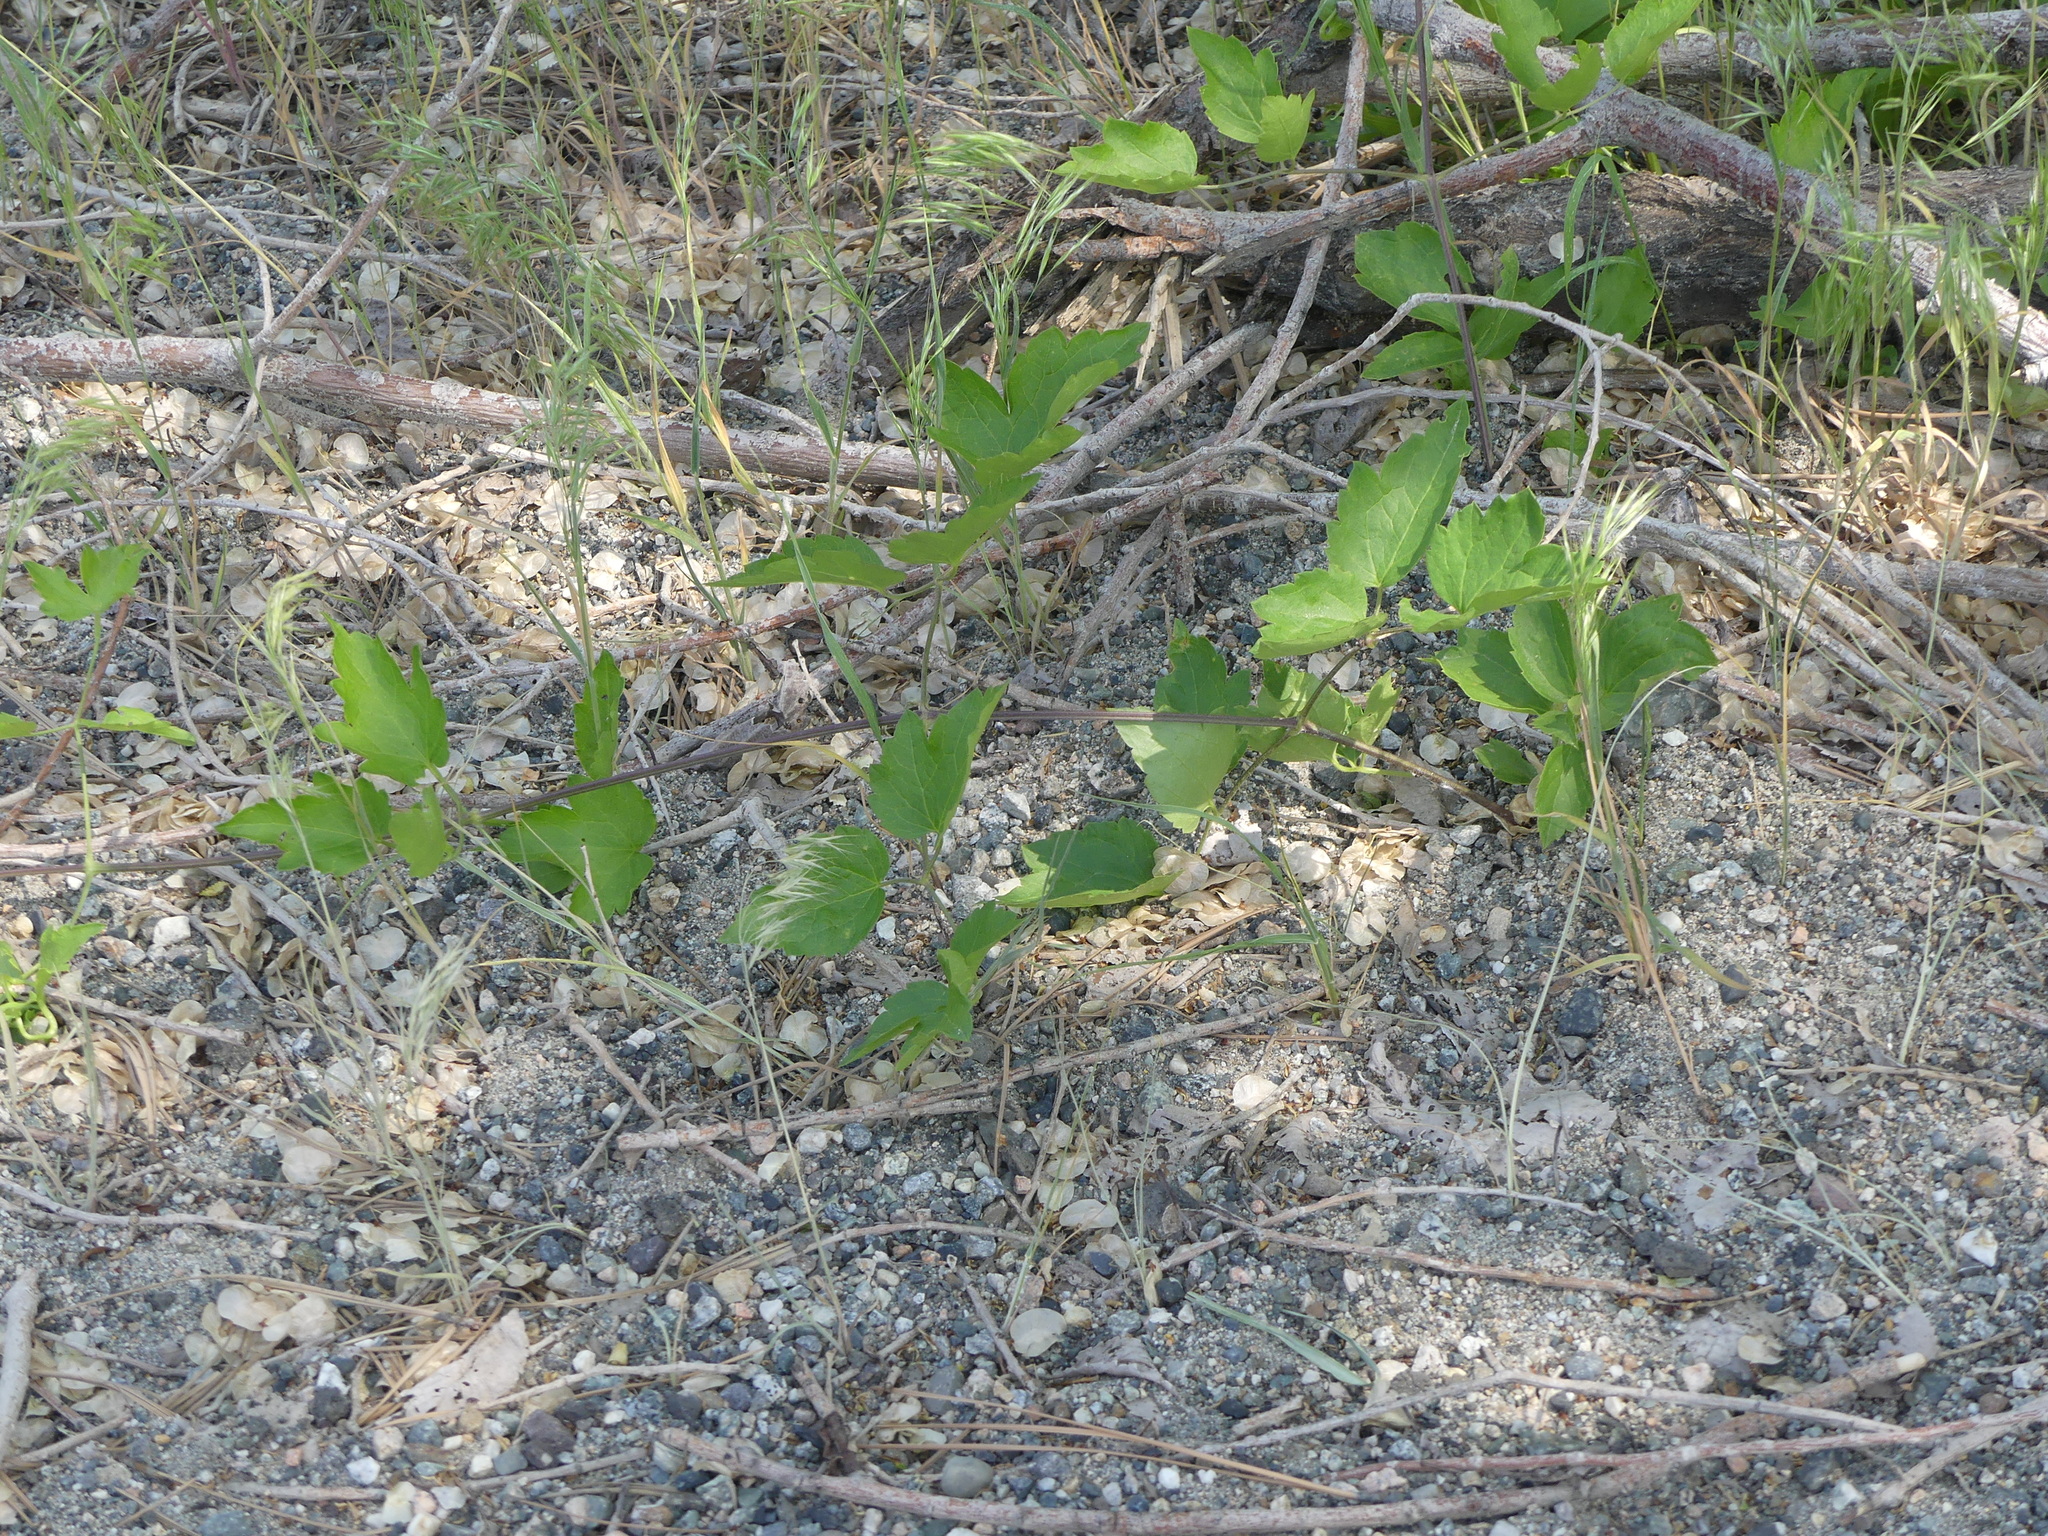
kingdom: Plantae
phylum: Tracheophyta
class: Magnoliopsida
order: Ranunculales
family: Ranunculaceae
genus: Clematis
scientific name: Clematis ligusticifolia
